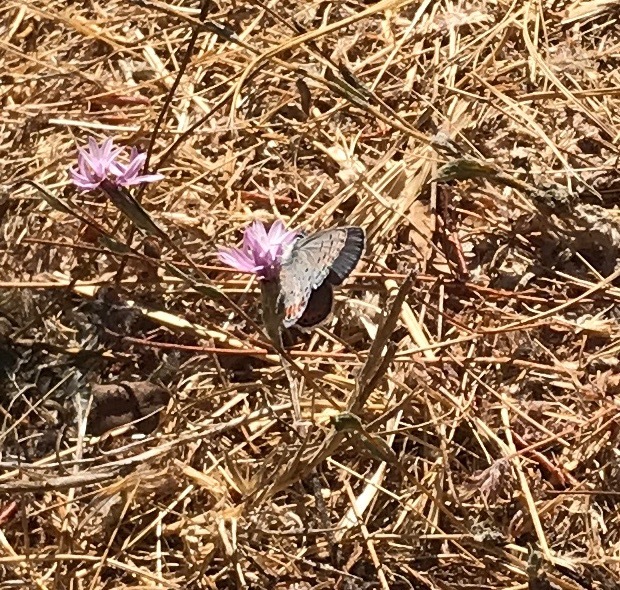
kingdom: Animalia
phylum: Arthropoda
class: Insecta
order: Lepidoptera
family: Lycaenidae
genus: Icaricia
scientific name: Icaricia acmon
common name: Acmon blue
